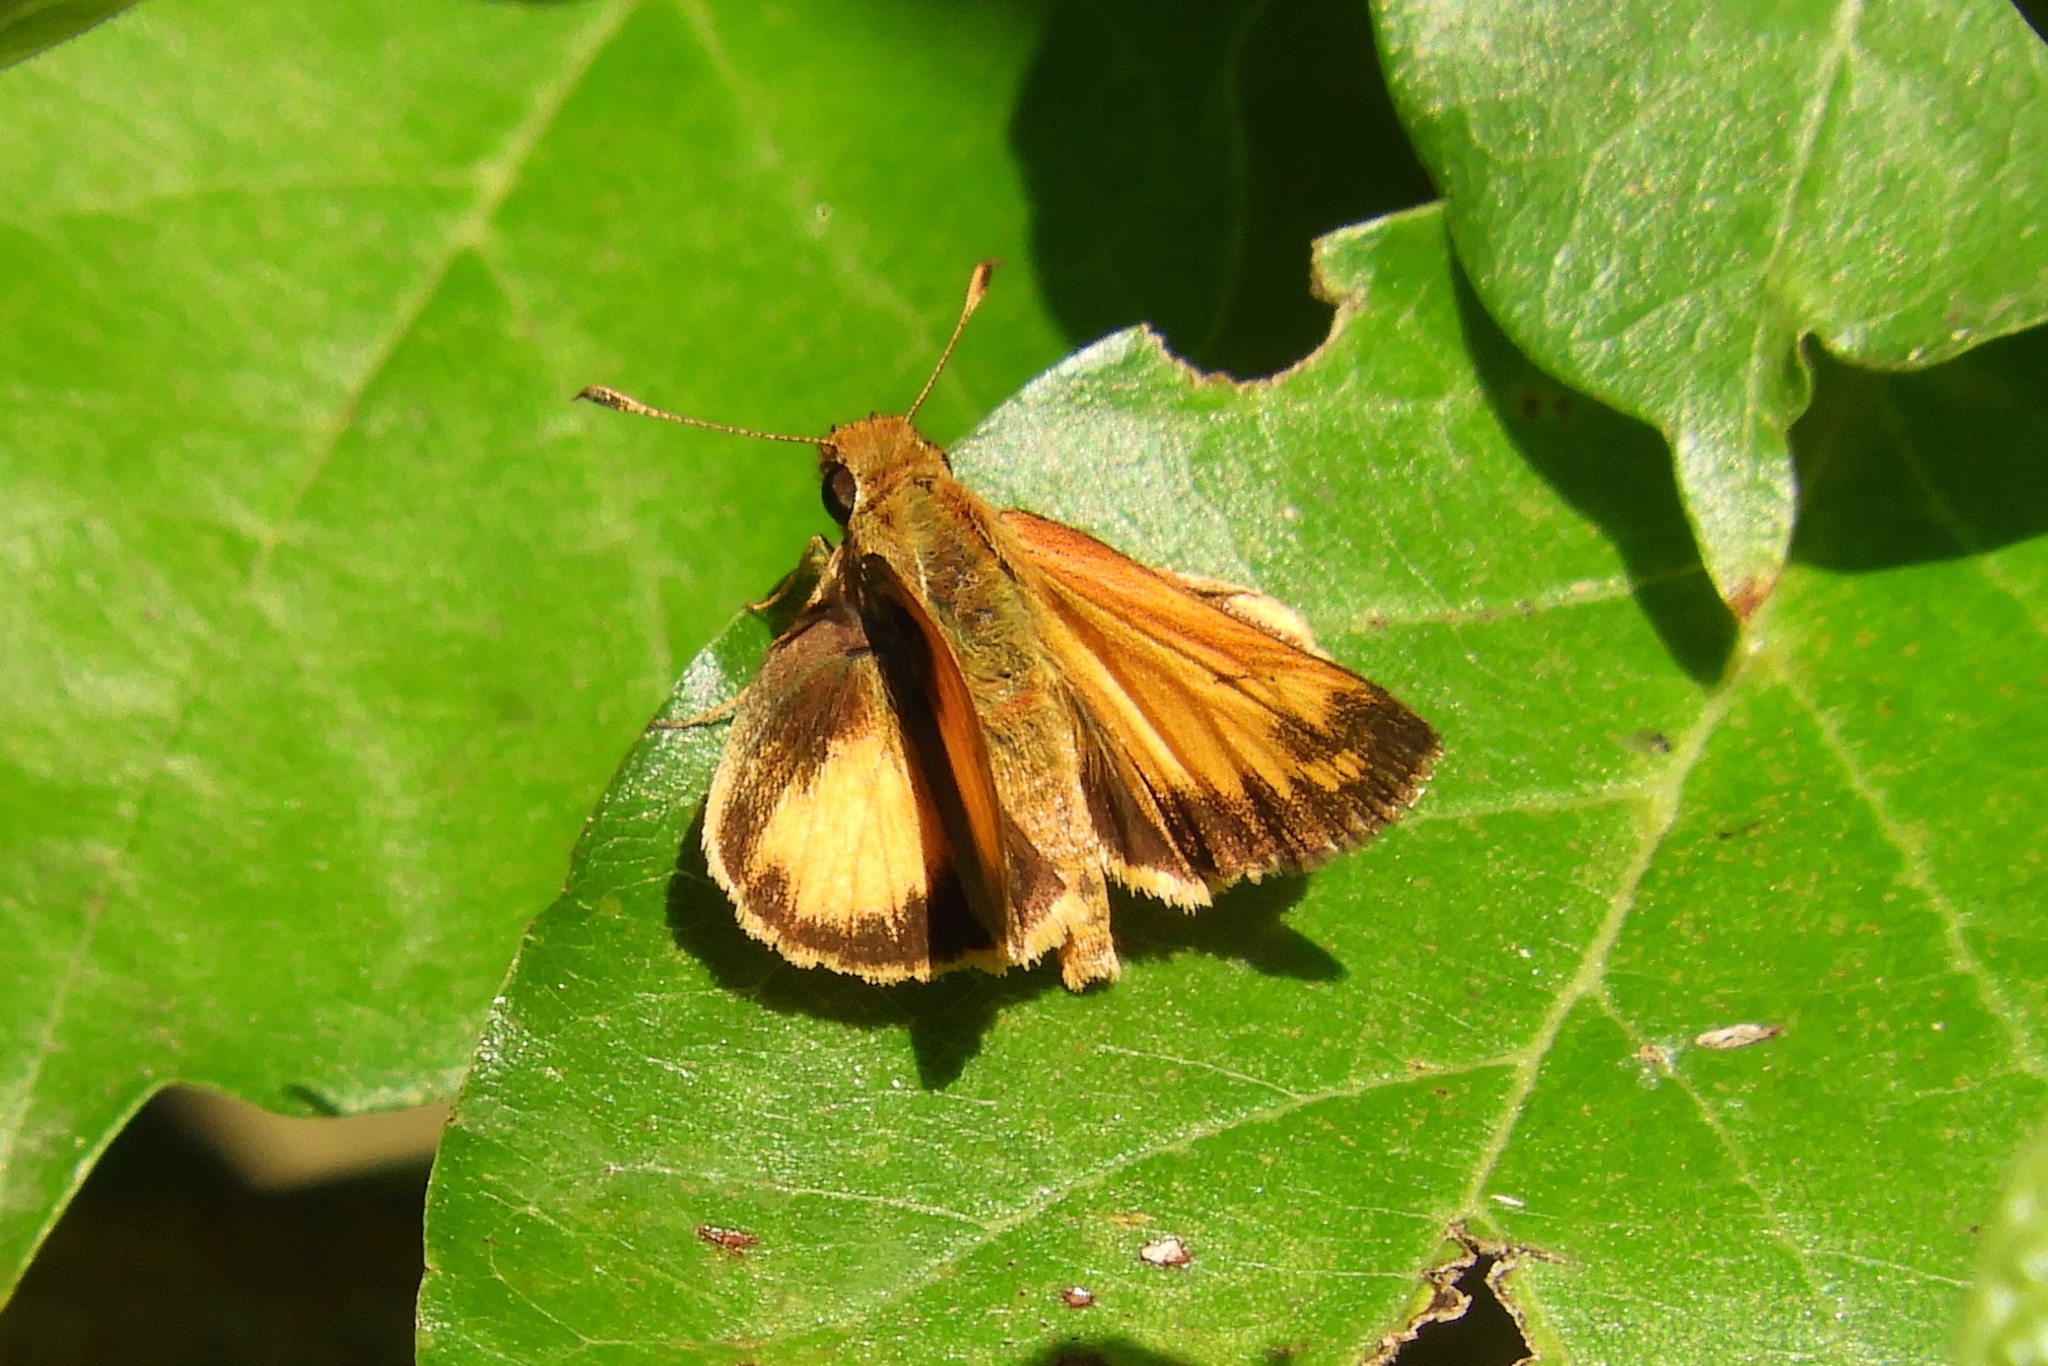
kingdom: Animalia
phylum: Arthropoda
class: Insecta
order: Lepidoptera
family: Hesperiidae
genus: Lon
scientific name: Lon zabulon
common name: Zabulon skipper
